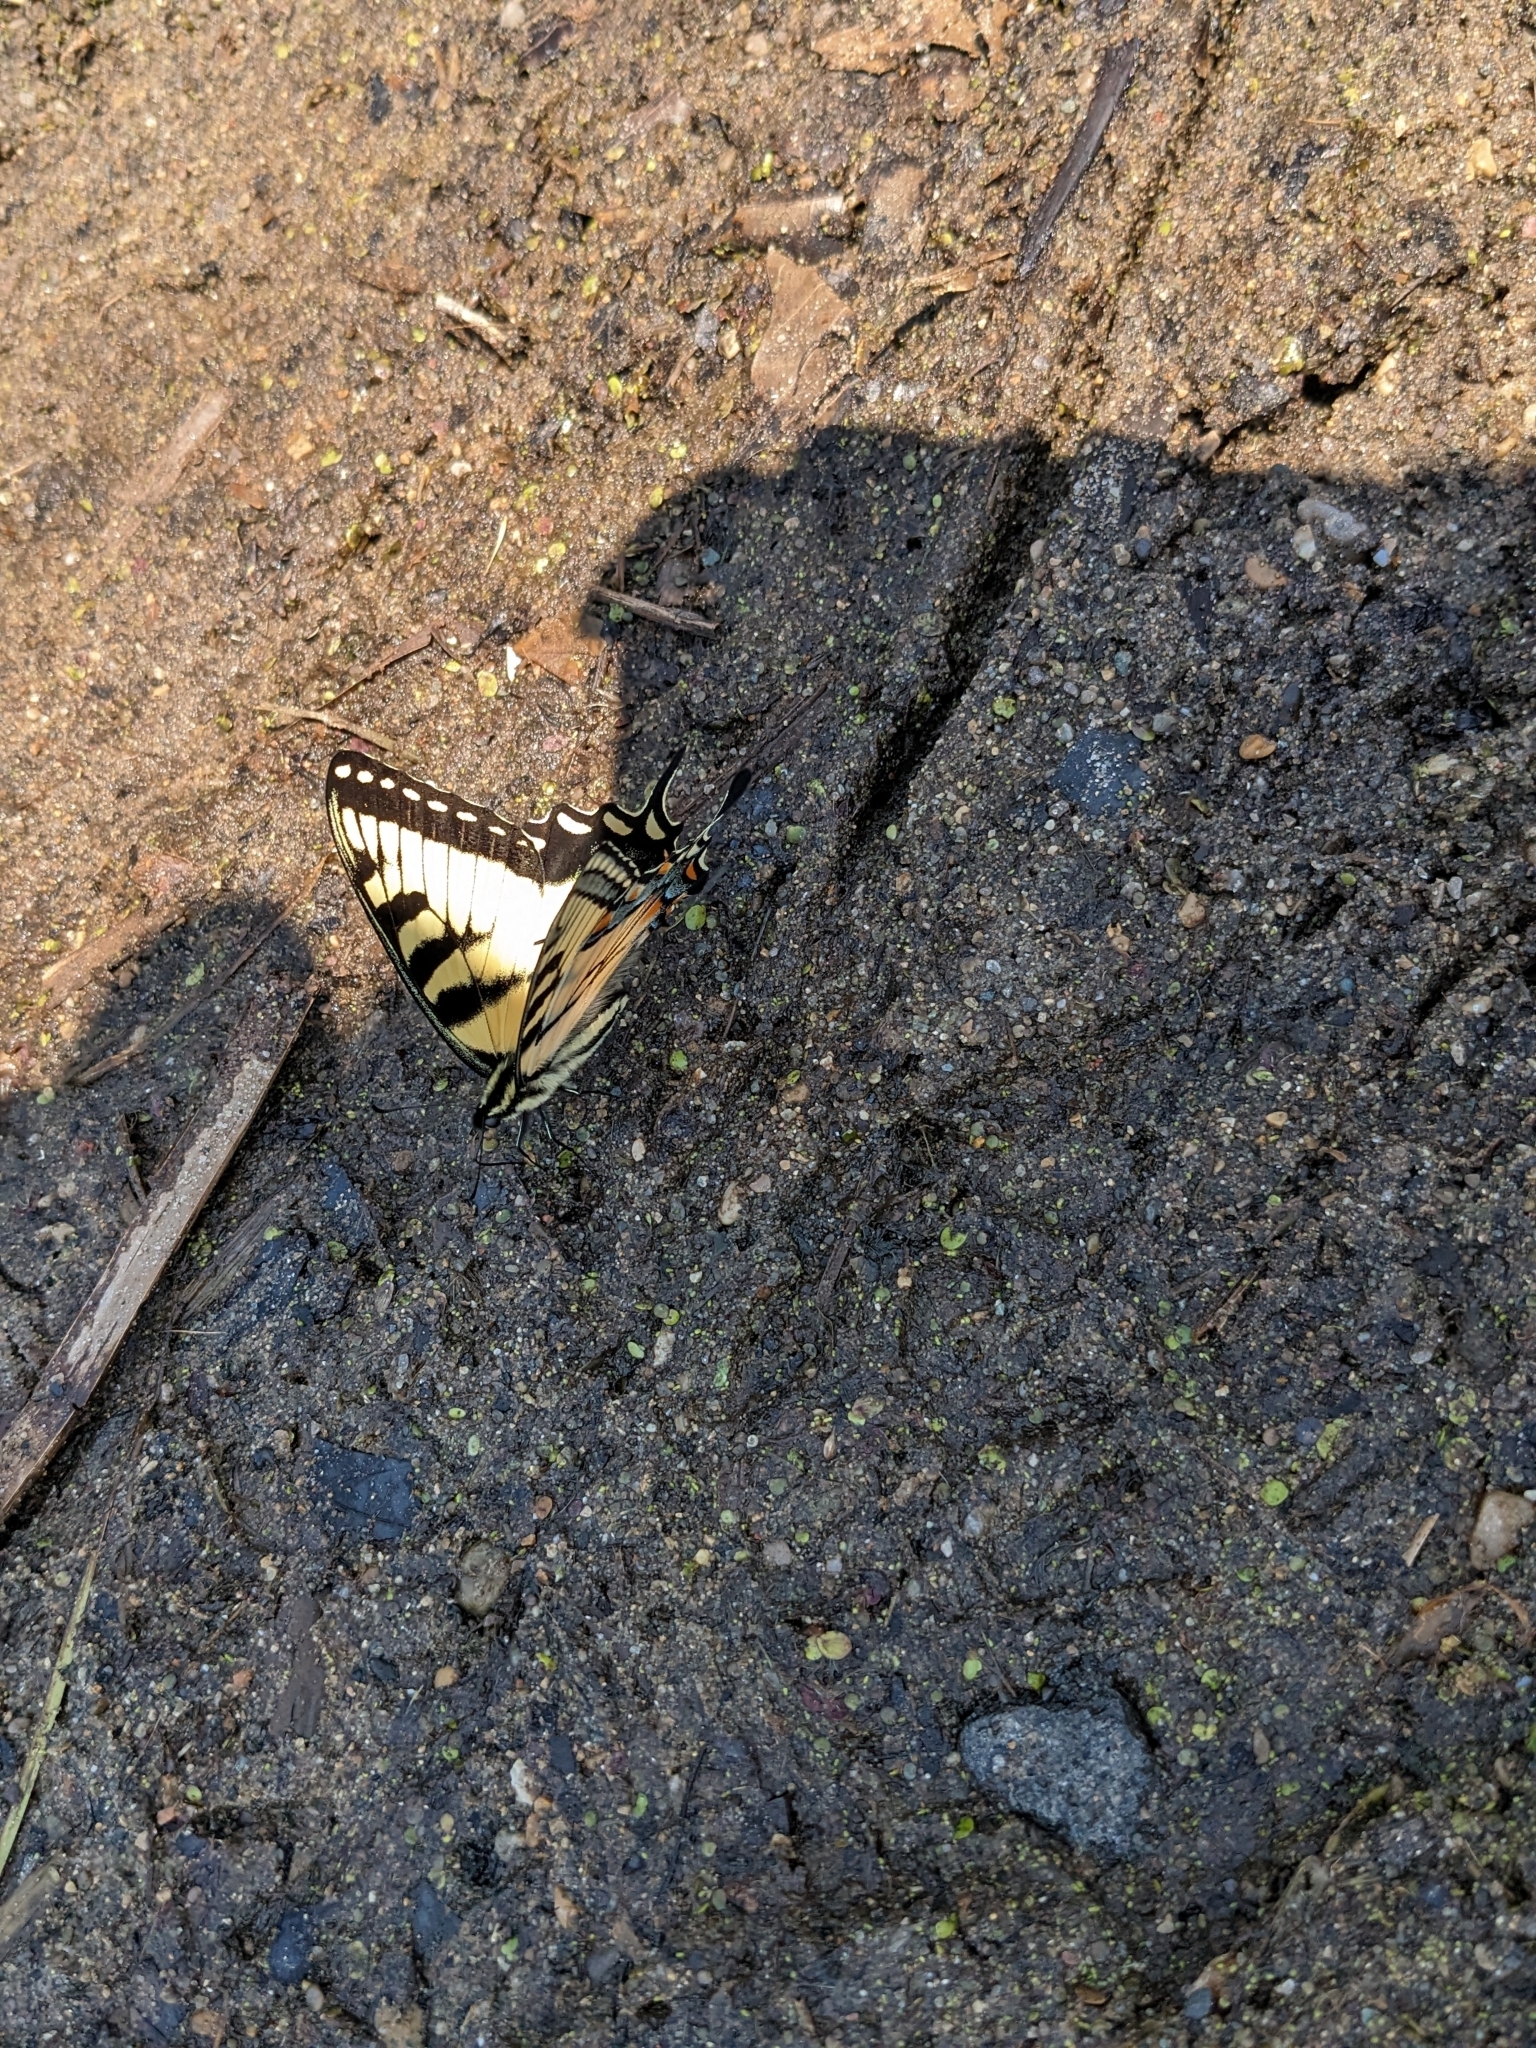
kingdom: Animalia
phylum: Arthropoda
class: Insecta
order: Lepidoptera
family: Papilionidae
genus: Papilio
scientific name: Papilio glaucus
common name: Tiger swallowtail
